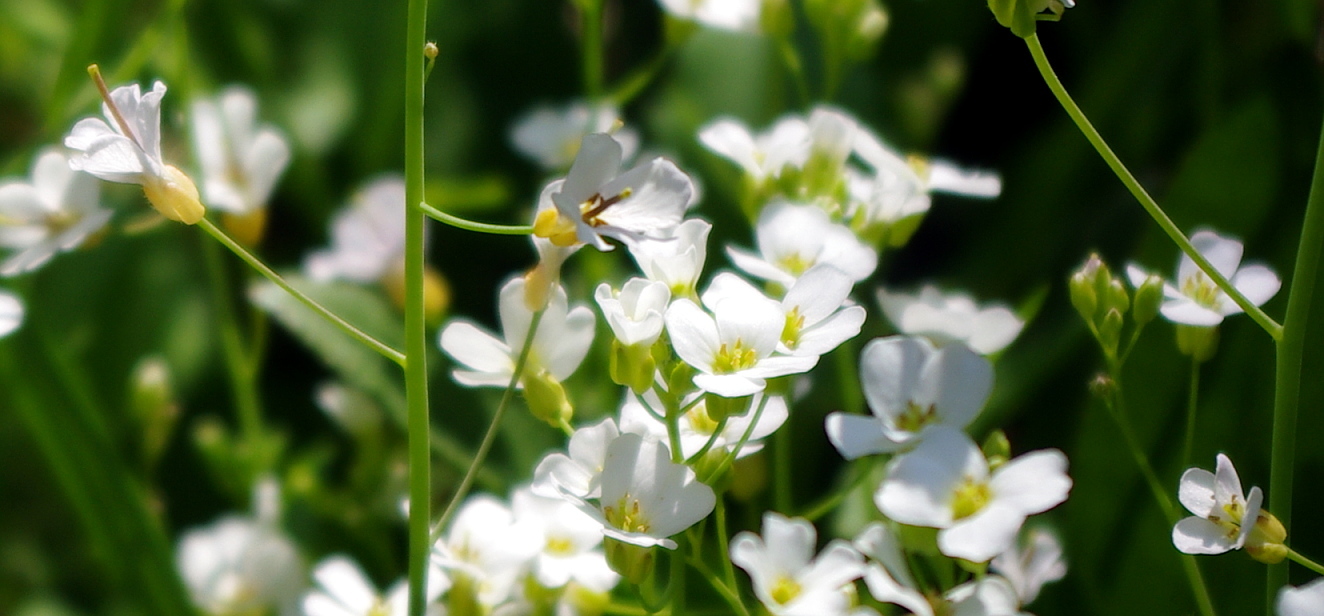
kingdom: Plantae
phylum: Tracheophyta
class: Magnoliopsida
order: Brassicales
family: Brassicaceae
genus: Arabidopsis
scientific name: Arabidopsis arenosa
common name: Sand rock-cress
